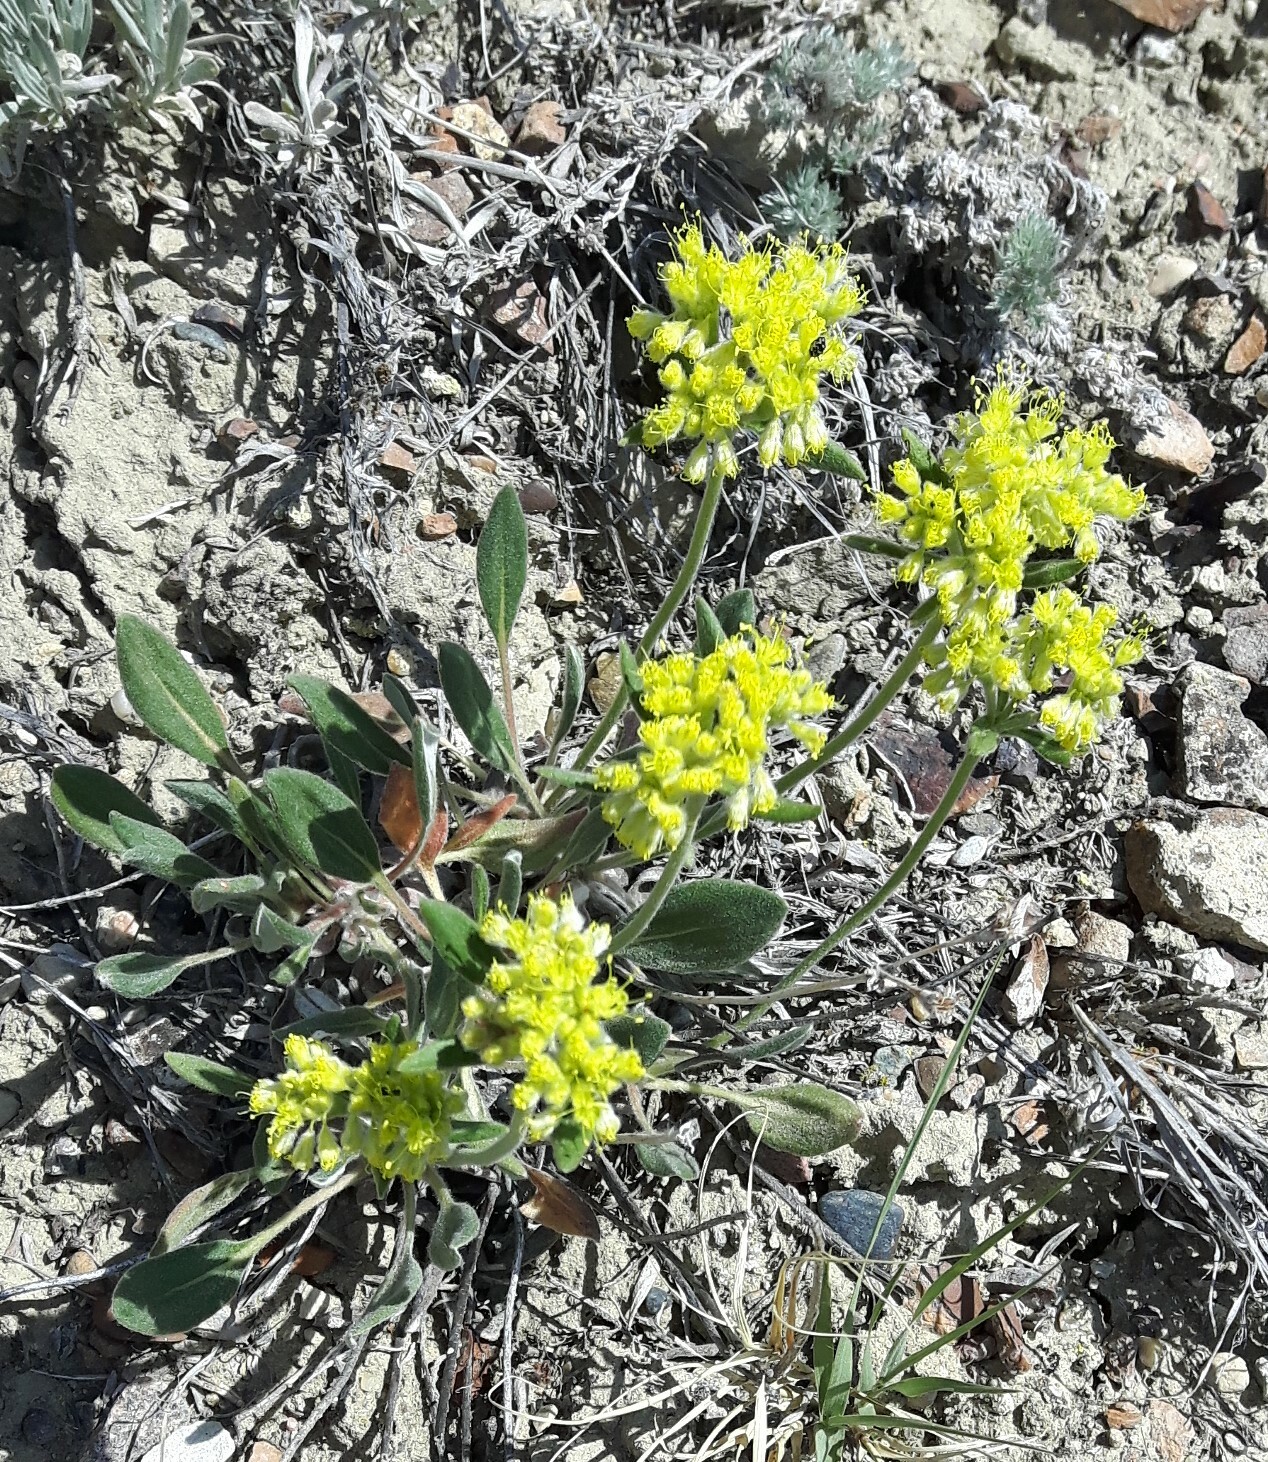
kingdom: Plantae
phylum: Tracheophyta
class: Magnoliopsida
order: Caryophyllales
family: Polygonaceae
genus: Eriogonum
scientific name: Eriogonum flavum
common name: Alpine golden wild buckwheat
